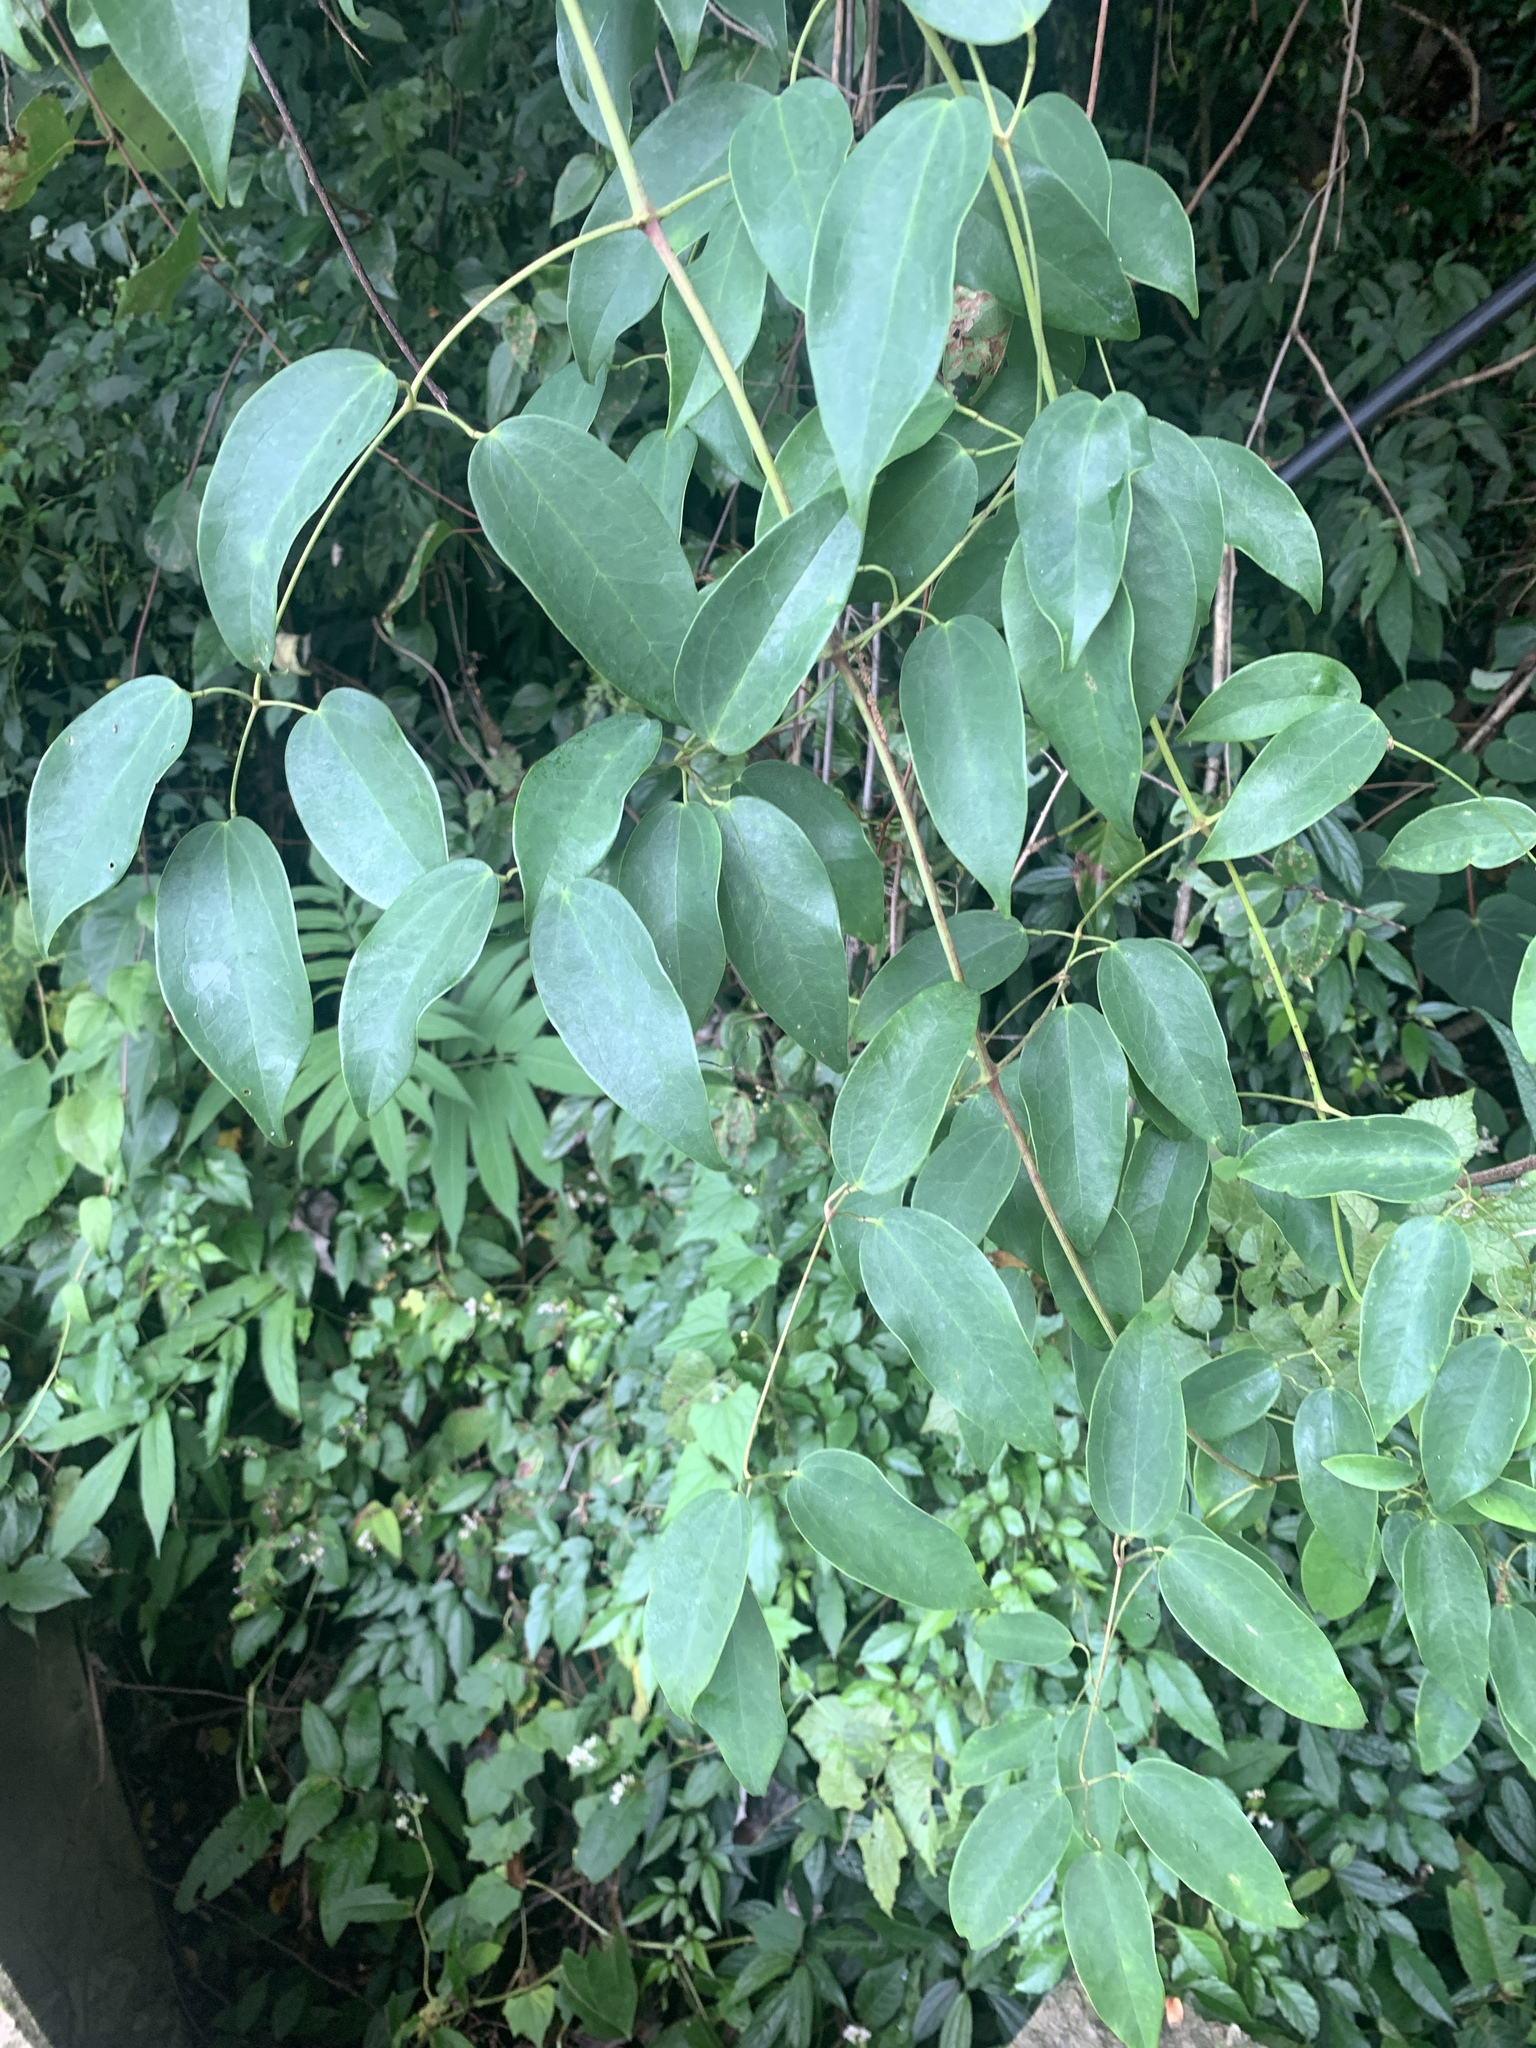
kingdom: Plantae
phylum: Tracheophyta
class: Magnoliopsida
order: Ranunculales
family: Ranunculaceae
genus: Clematis
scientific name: Clematis uncinata
